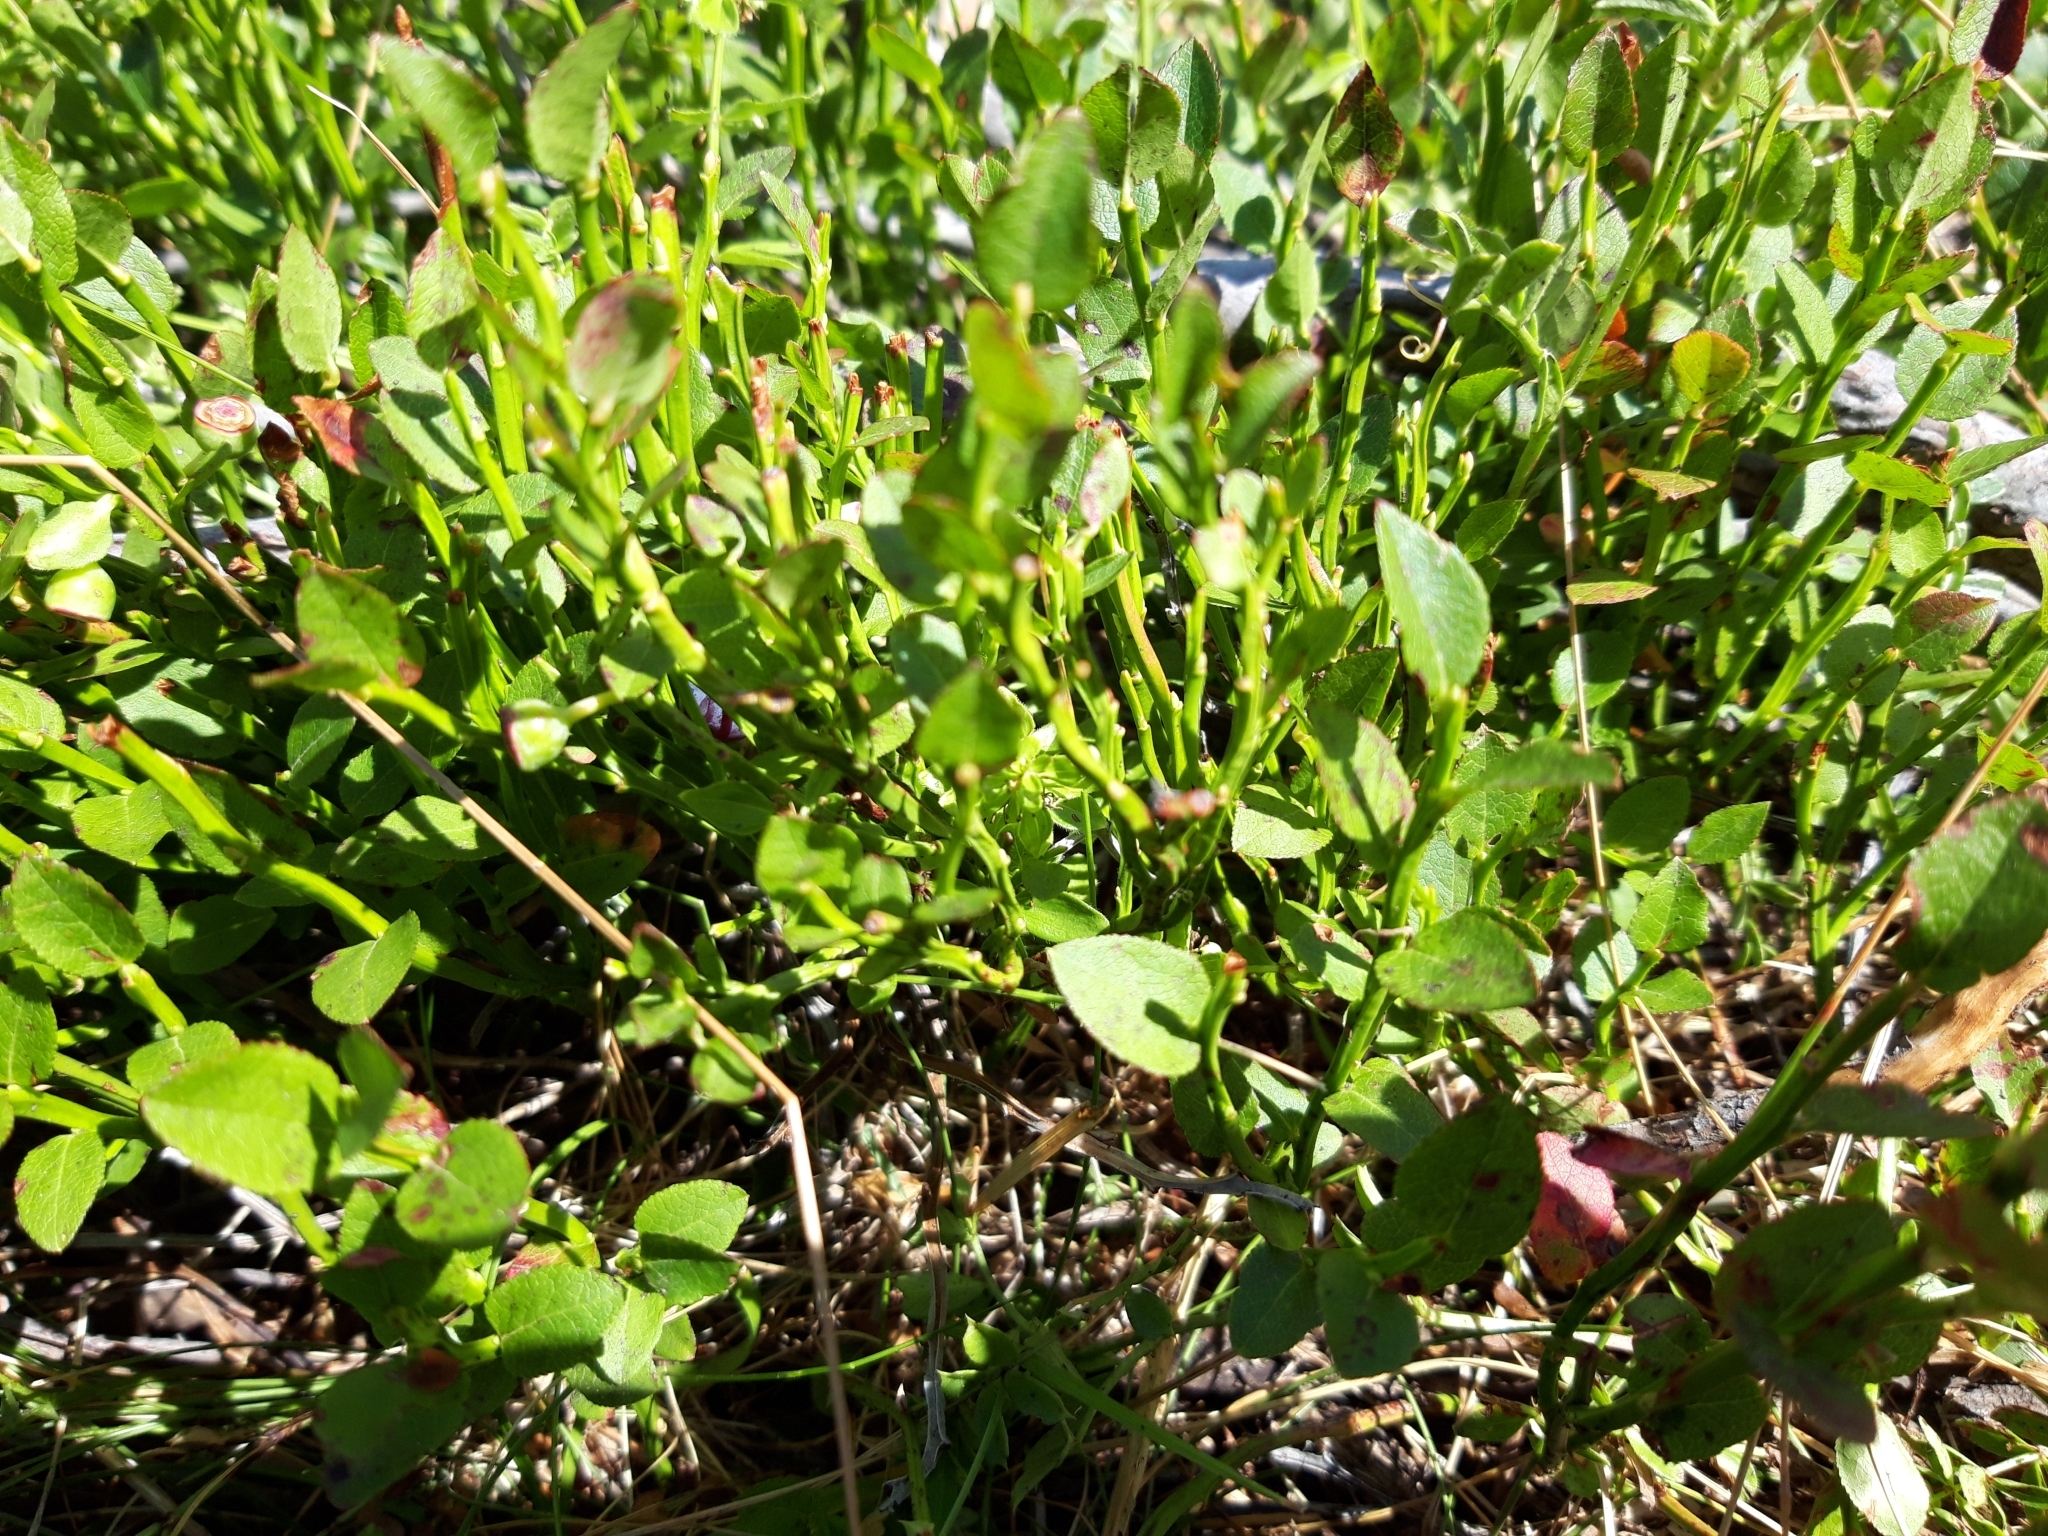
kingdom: Plantae
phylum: Tracheophyta
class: Magnoliopsida
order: Ericales
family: Ericaceae
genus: Vaccinium
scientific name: Vaccinium myrtillus
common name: Bilberry
